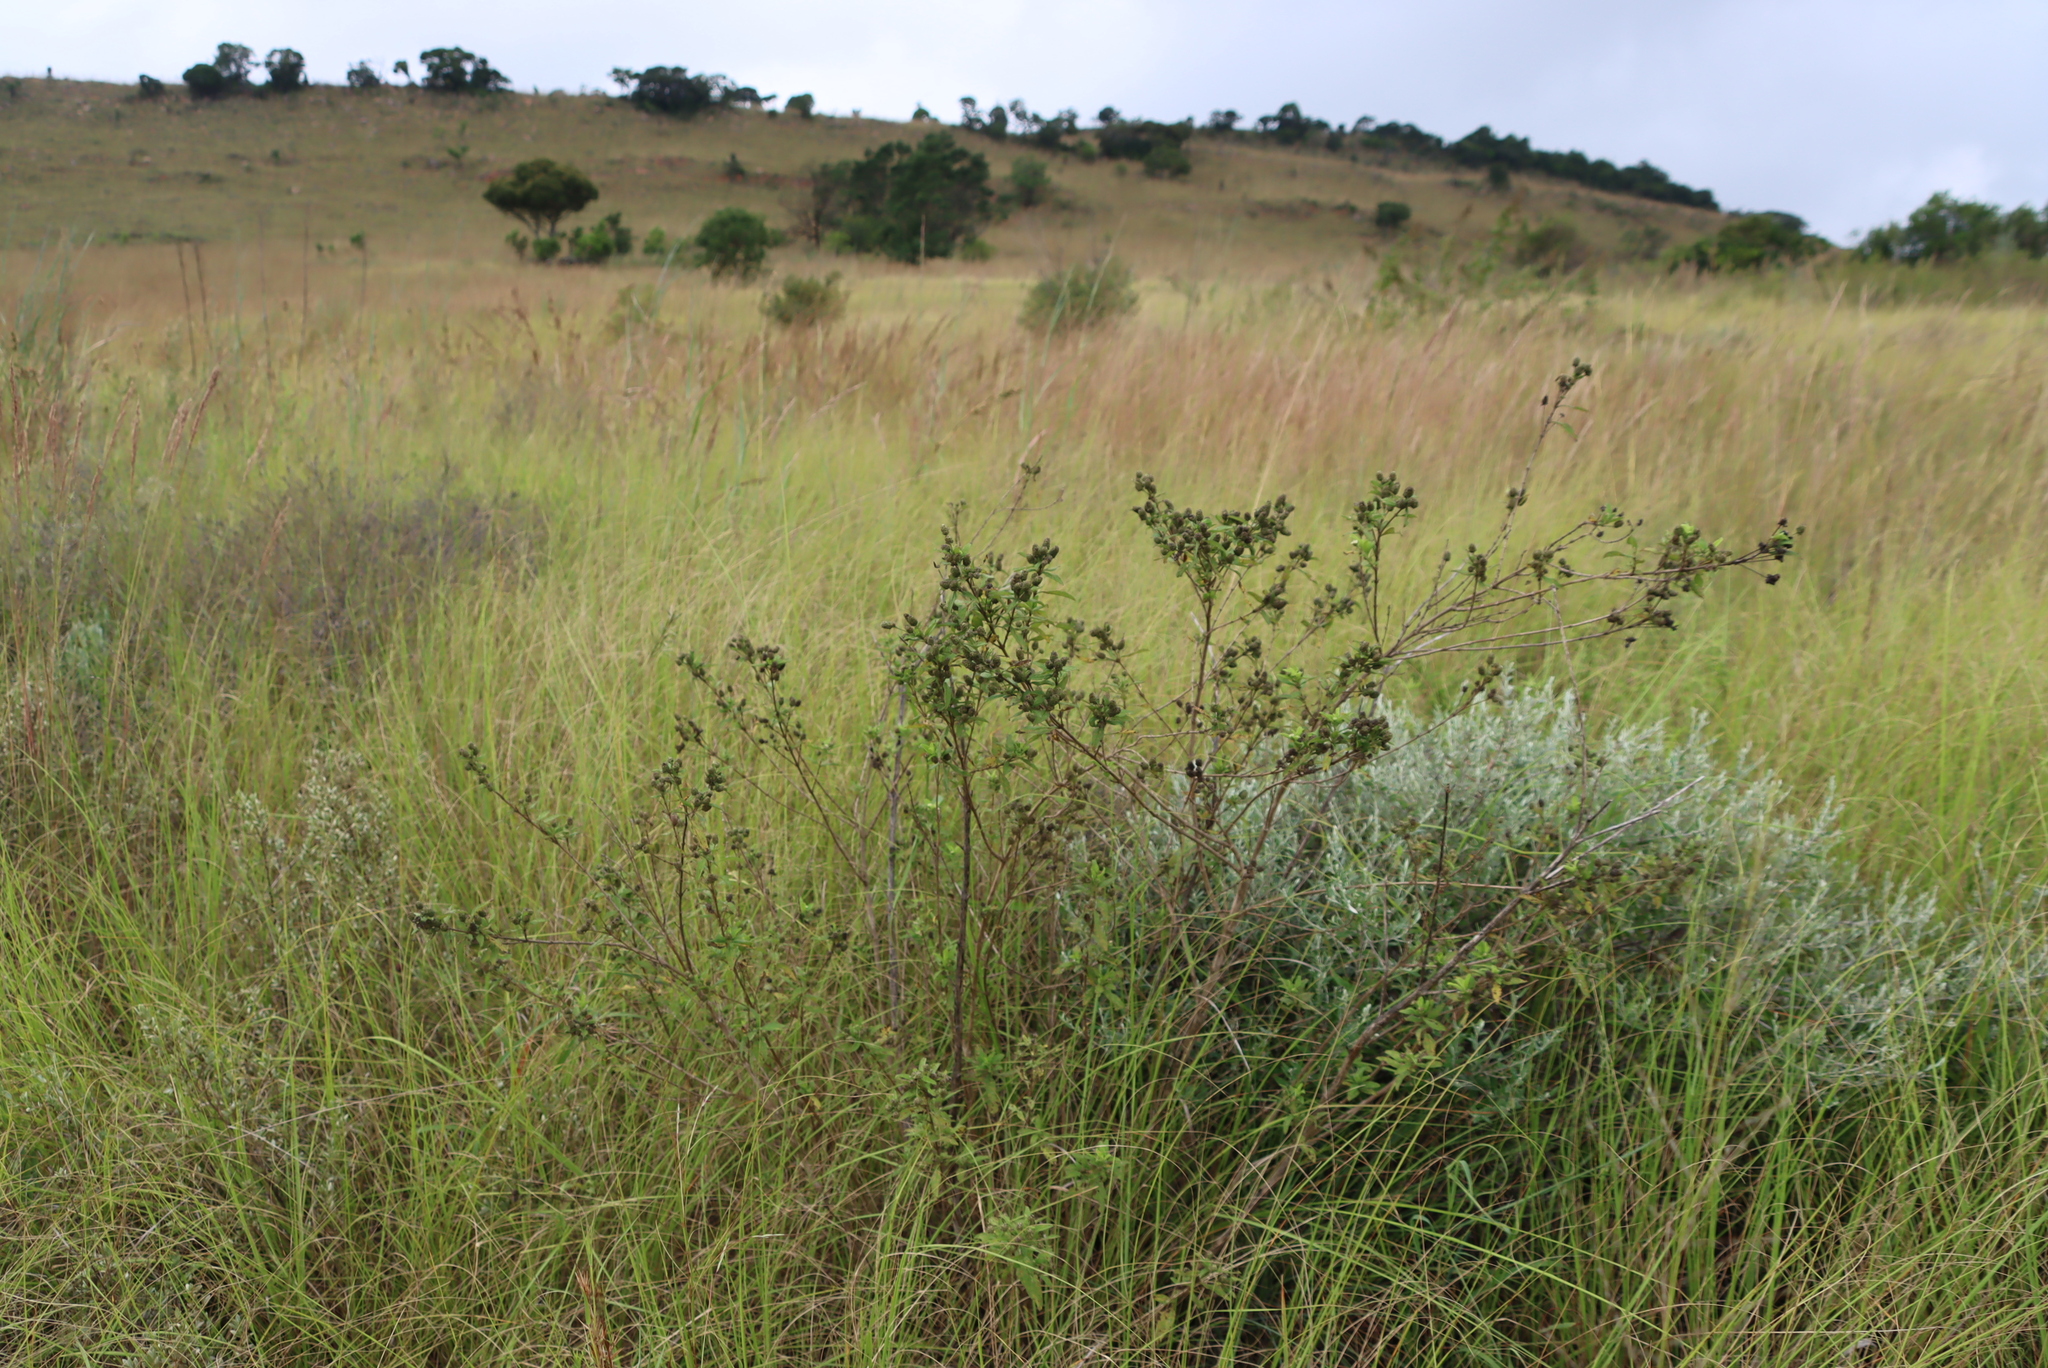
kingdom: Plantae
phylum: Tracheophyta
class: Magnoliopsida
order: Lamiales
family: Verbenaceae
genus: Lippia
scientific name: Lippia javanica
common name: Lemonbush
